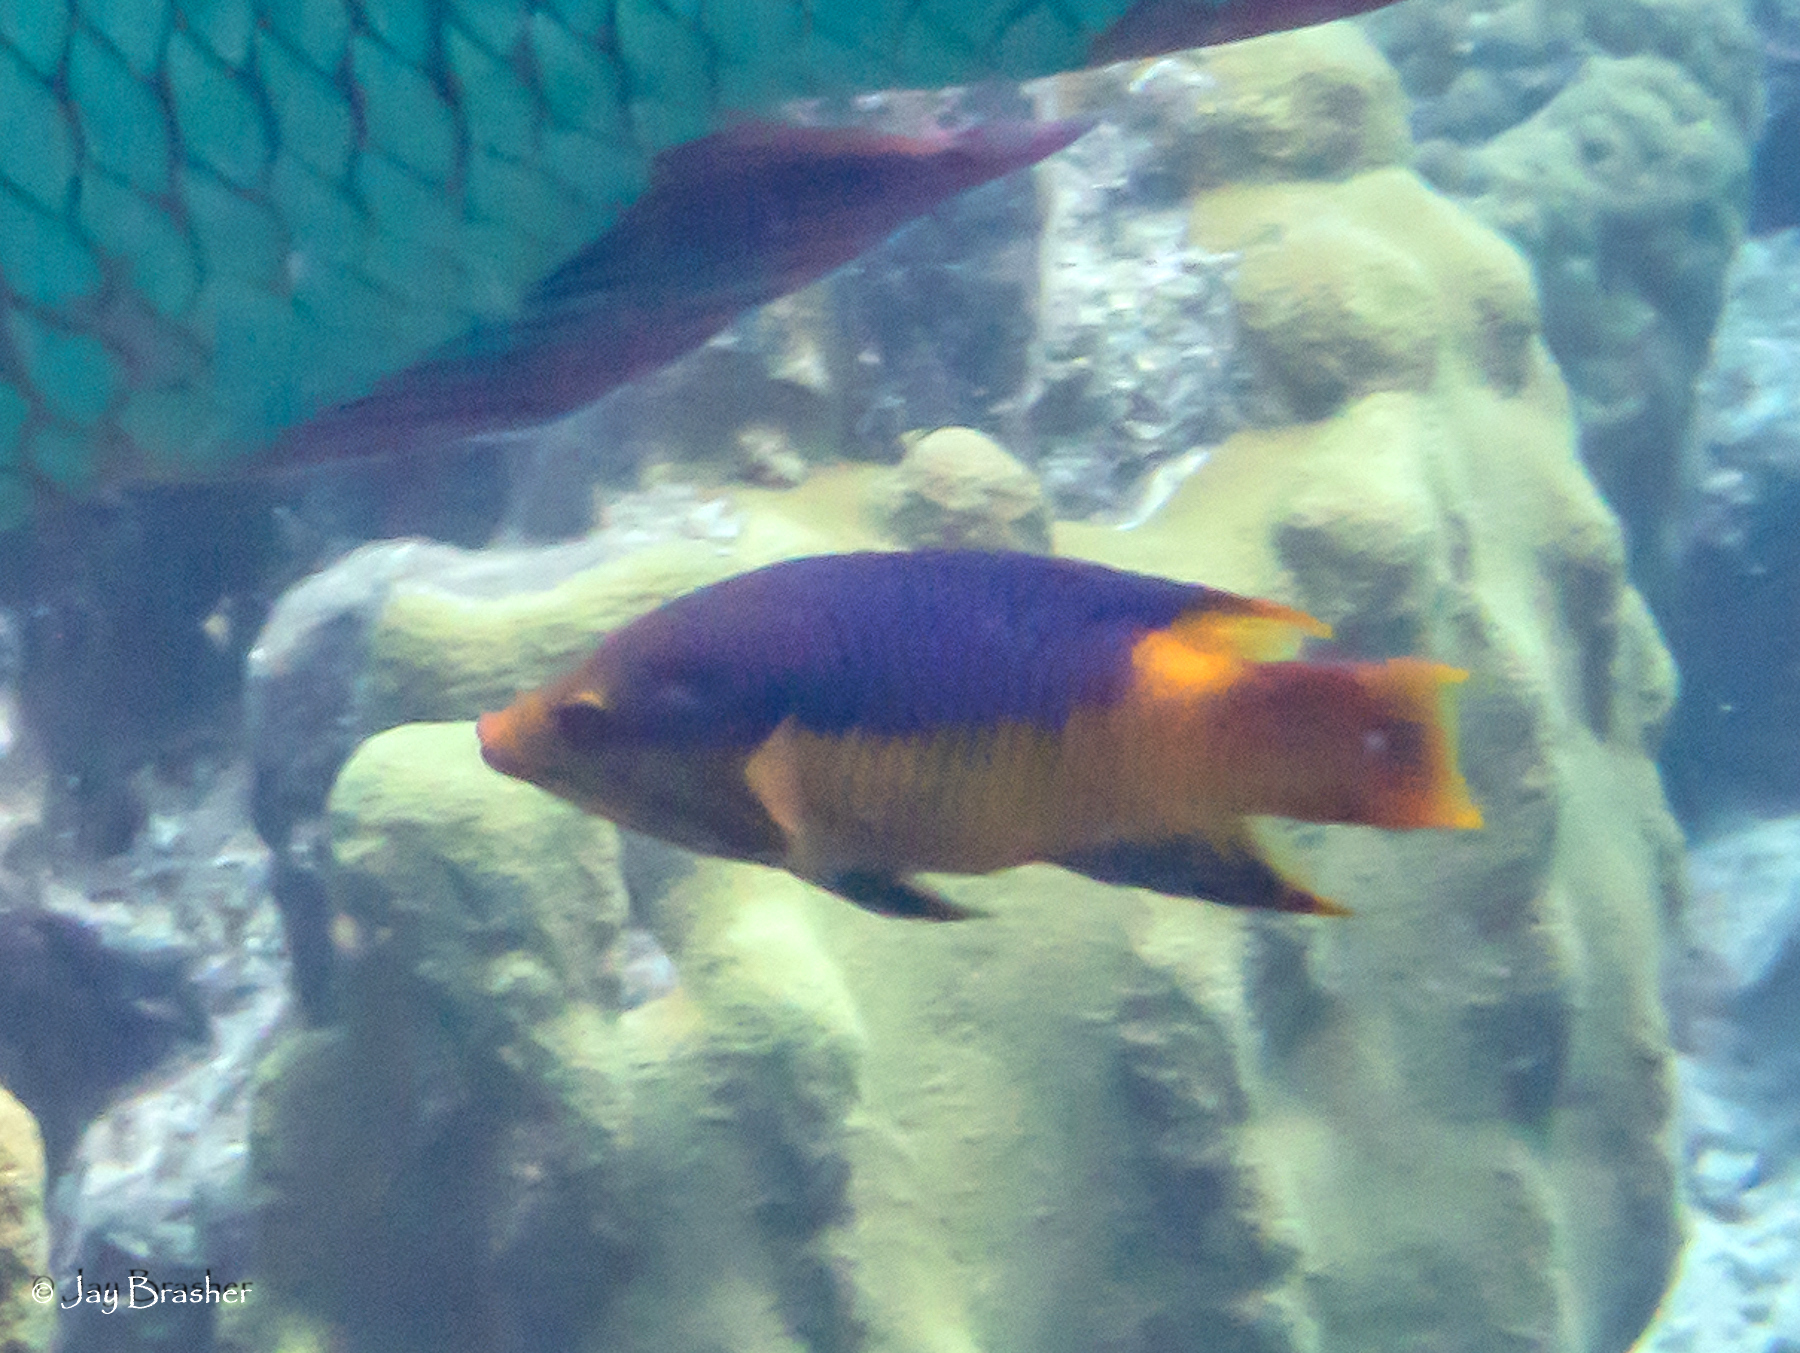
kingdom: Animalia
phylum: Cnidaria
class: Anthozoa
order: Scleractinia
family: Merulinidae
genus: Orbicella
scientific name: Orbicella faveolata
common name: Mountainous star coral
